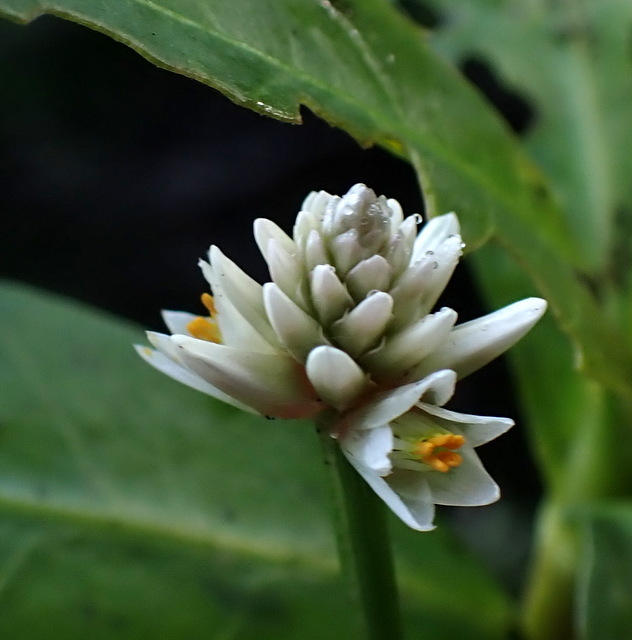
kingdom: Plantae
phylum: Tracheophyta
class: Magnoliopsida
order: Caryophyllales
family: Amaranthaceae
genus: Alternanthera
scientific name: Alternanthera philoxeroides
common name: Alligatorweed
